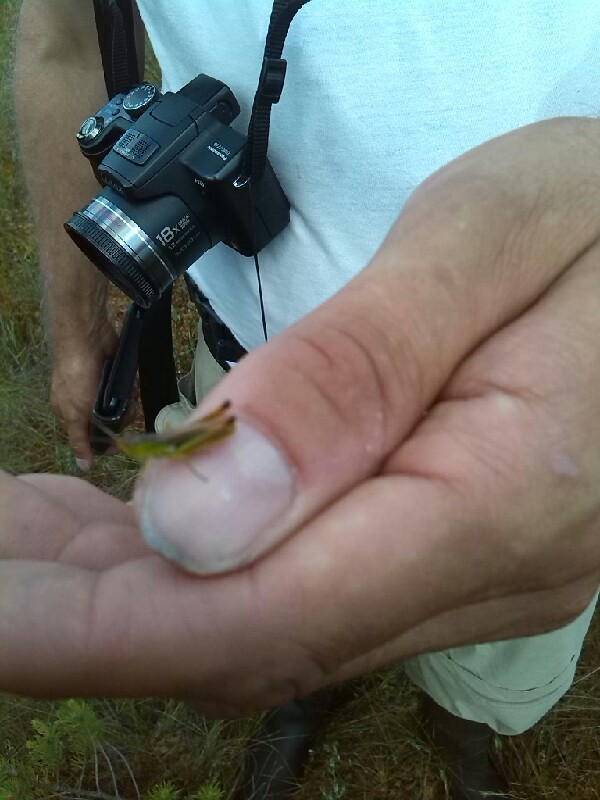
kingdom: Animalia
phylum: Arthropoda
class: Insecta
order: Orthoptera
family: Acrididae
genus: Pseudochorthippus
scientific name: Pseudochorthippus
